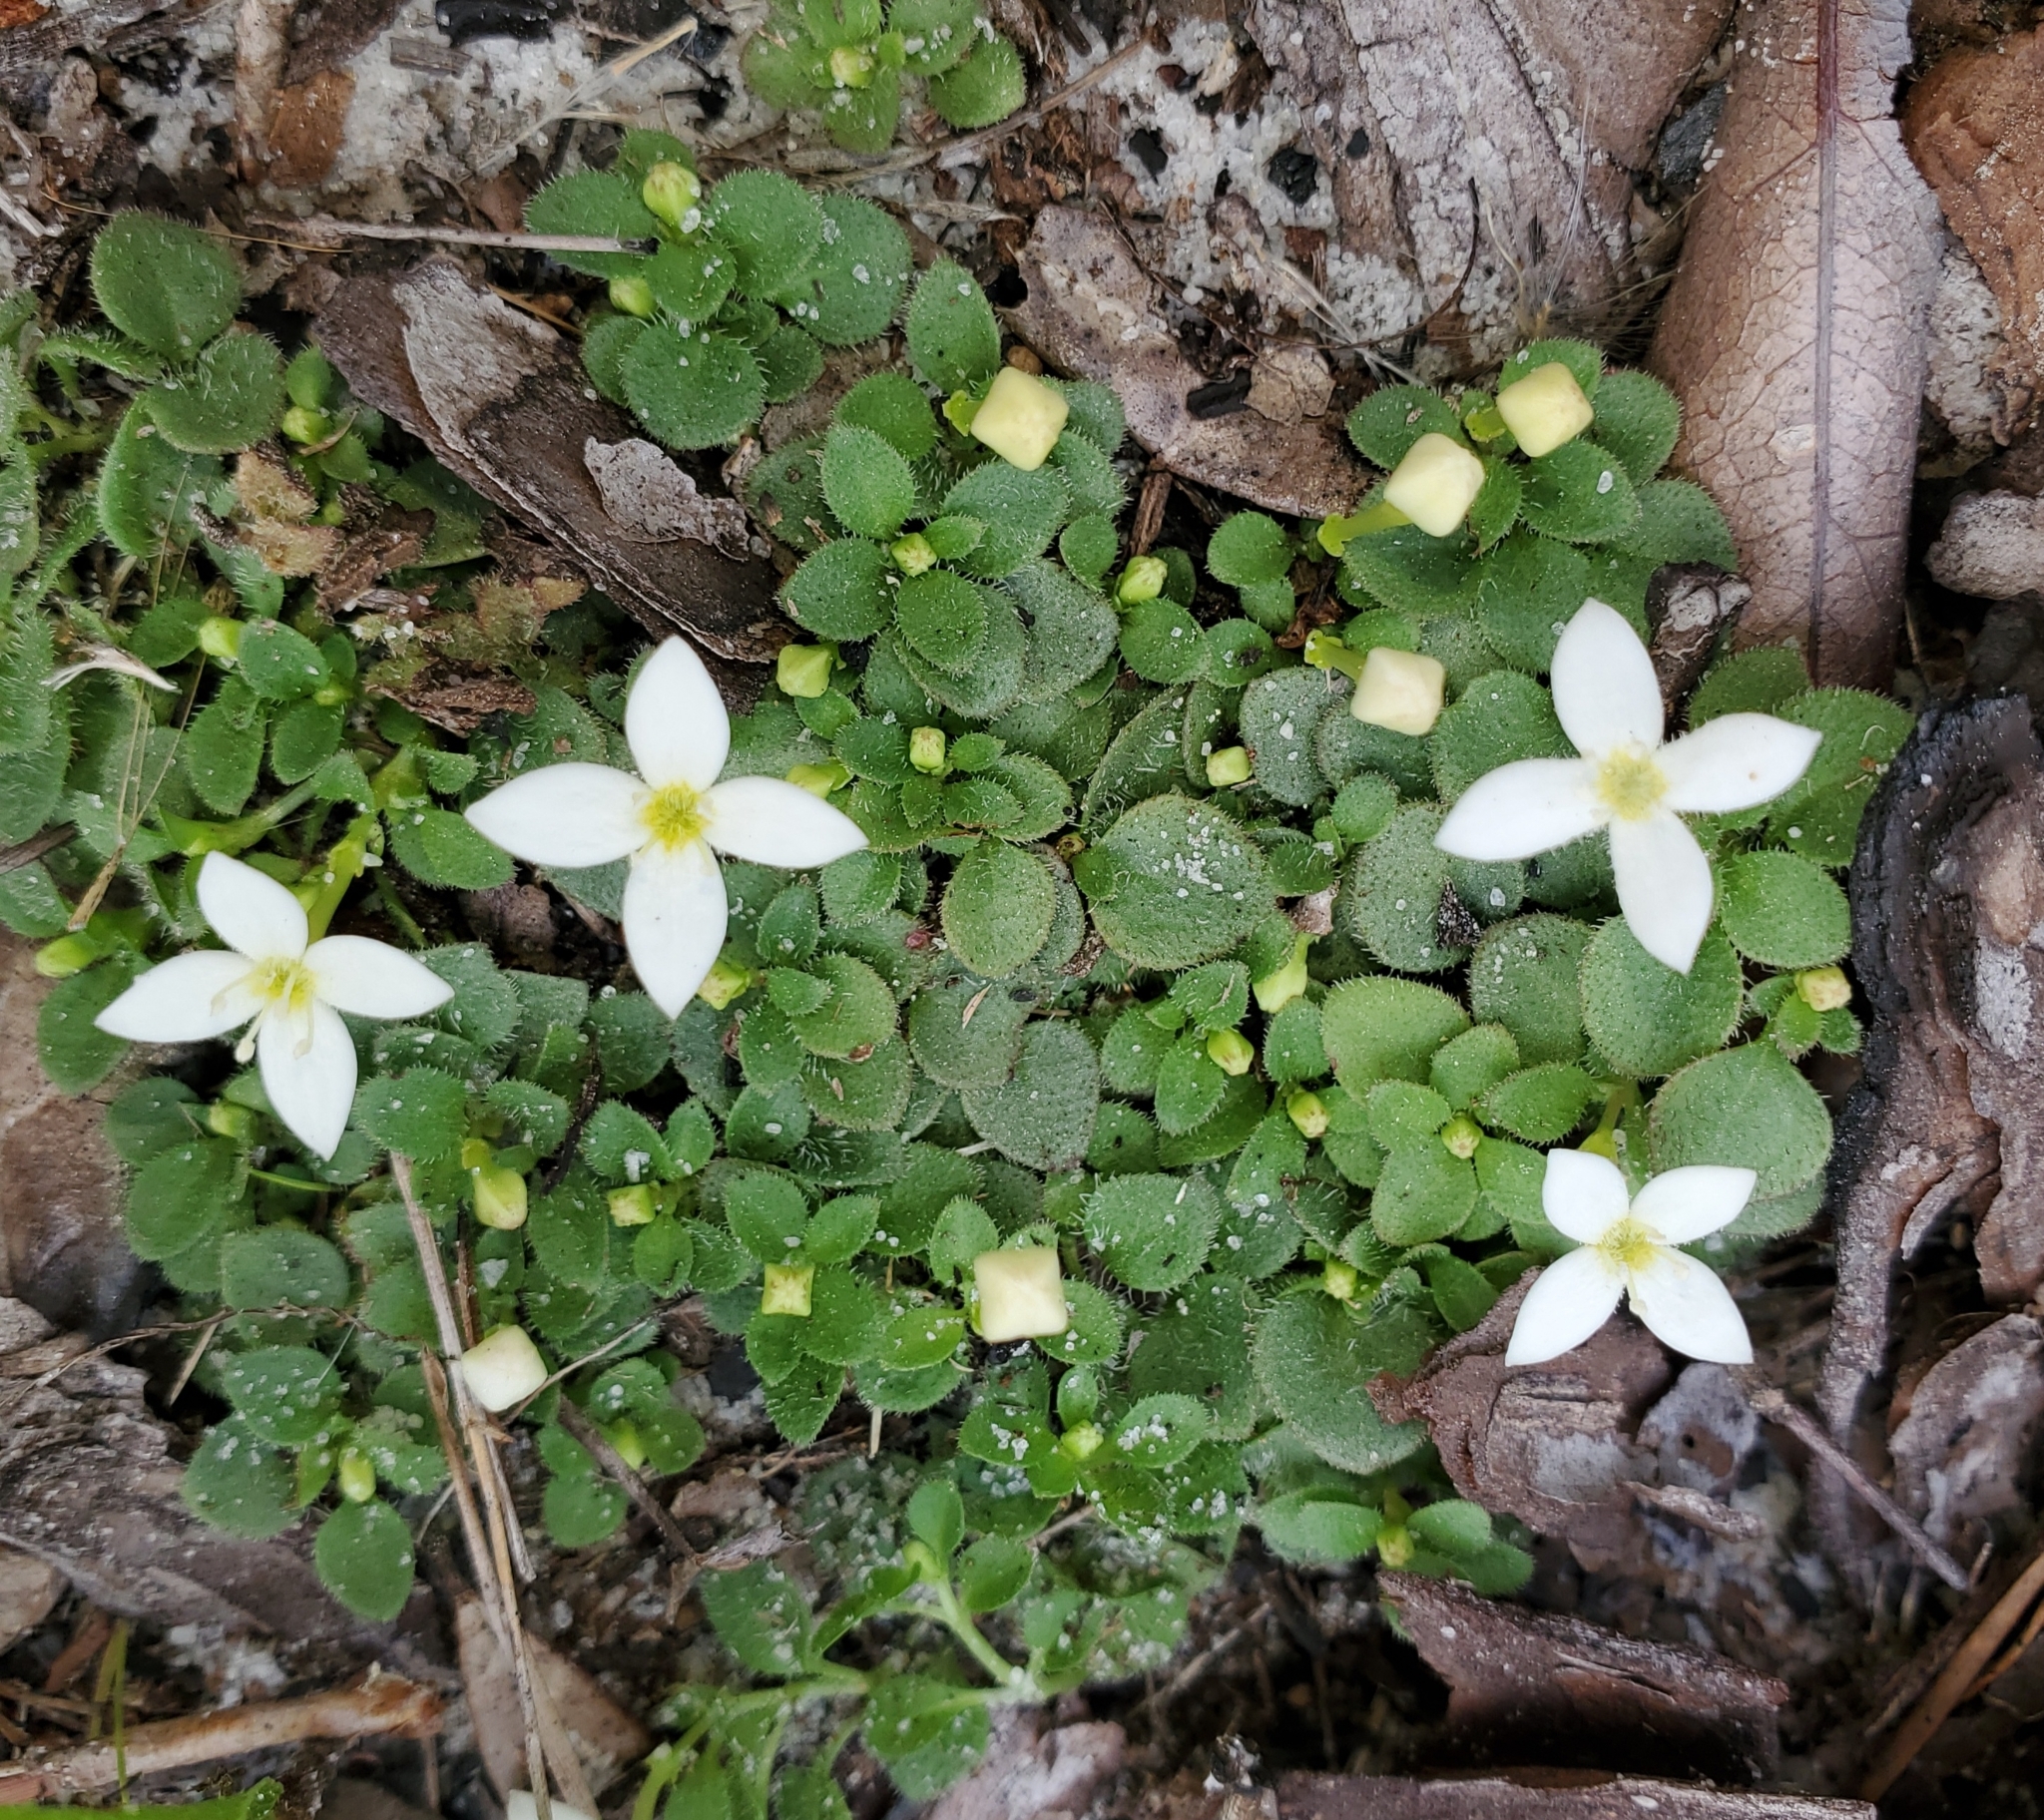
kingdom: Plantae
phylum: Tracheophyta
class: Magnoliopsida
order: Gentianales
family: Rubiaceae
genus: Houstonia
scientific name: Houstonia procumbens
